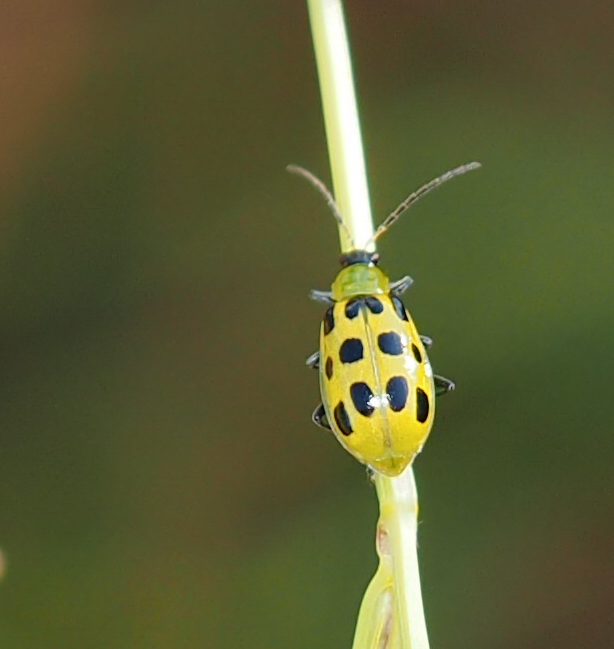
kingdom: Animalia
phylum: Arthropoda
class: Insecta
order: Coleoptera
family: Chrysomelidae
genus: Diabrotica
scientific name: Diabrotica undecimpunctata
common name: Spotted cucumber beetle
